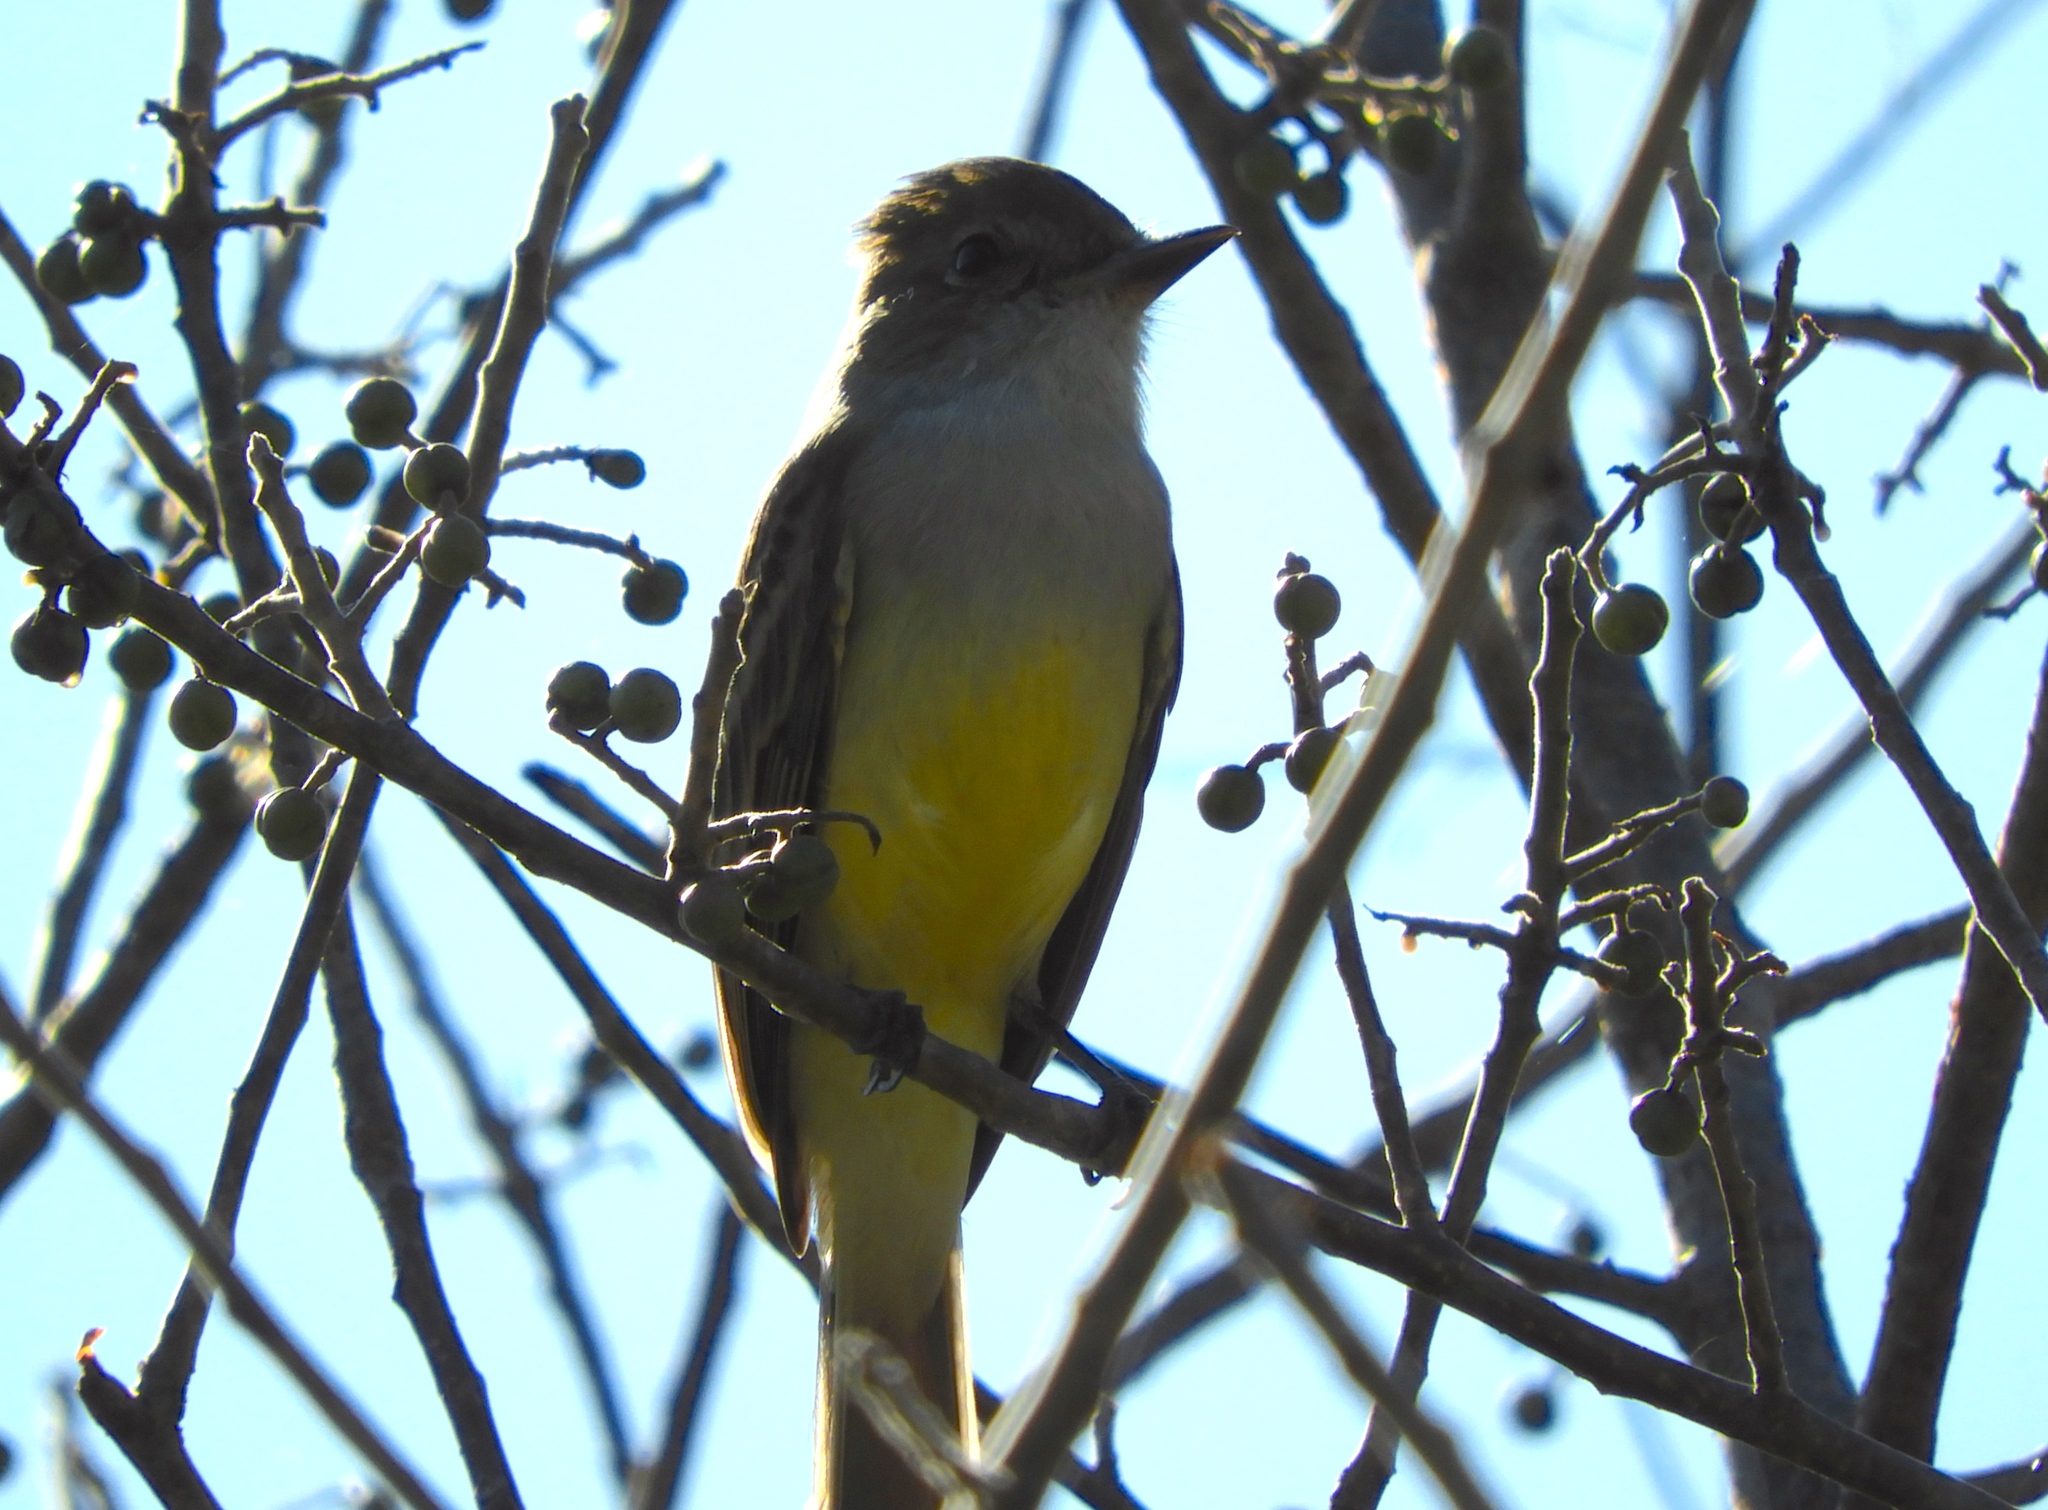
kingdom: Animalia
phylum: Chordata
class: Aves
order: Passeriformes
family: Tyrannidae
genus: Myiarchus
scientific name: Myiarchus
